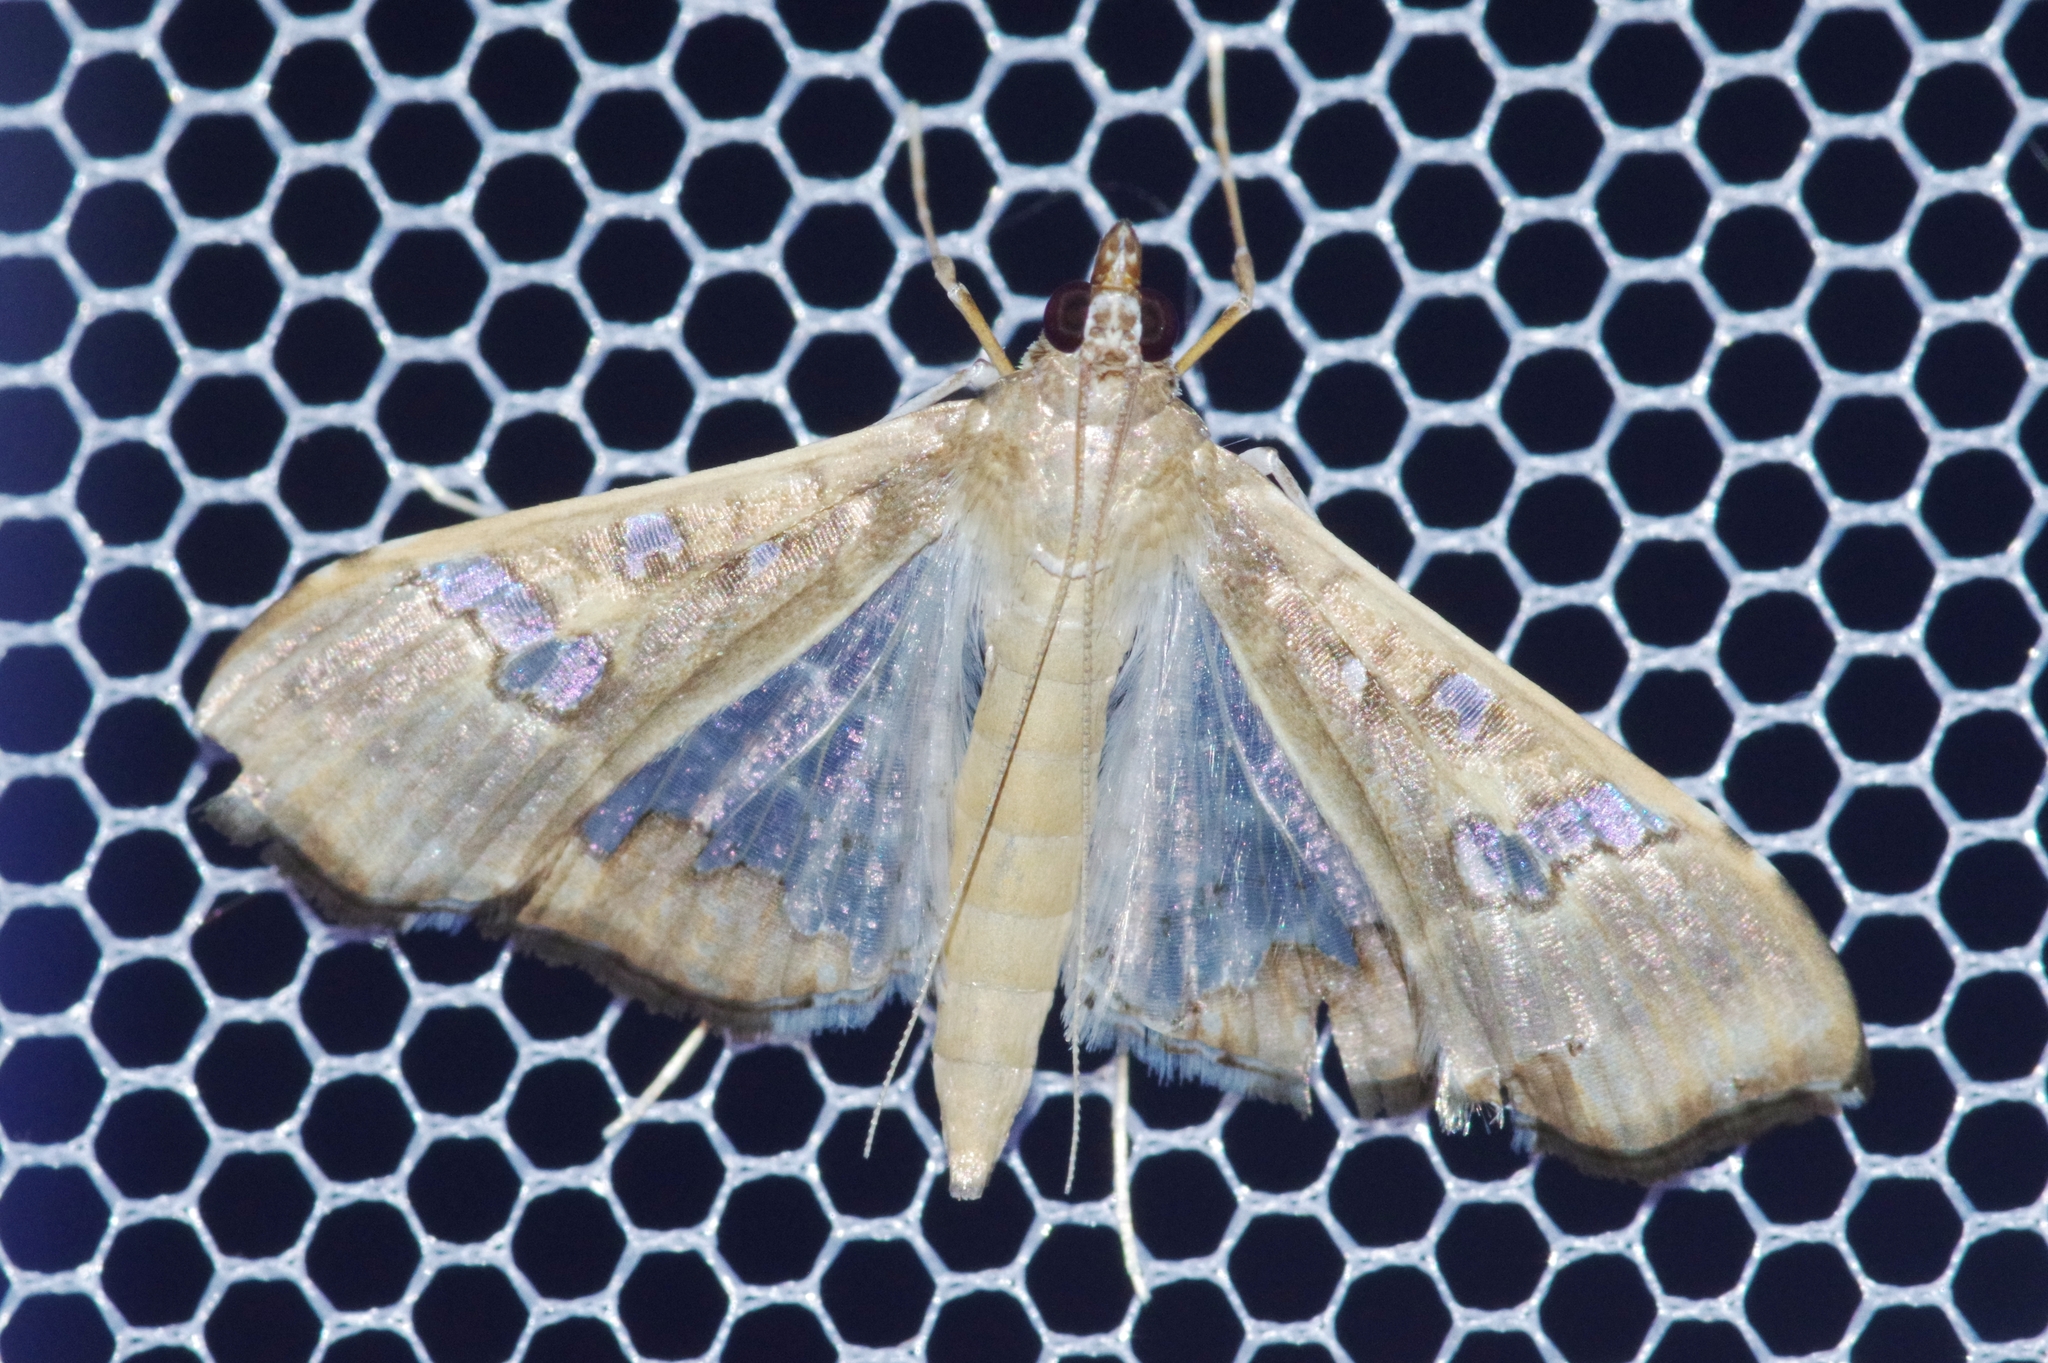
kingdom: Animalia
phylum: Arthropoda
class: Insecta
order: Lepidoptera
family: Crambidae
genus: Maruca
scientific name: Maruca vitrata
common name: Maruca pod borer
